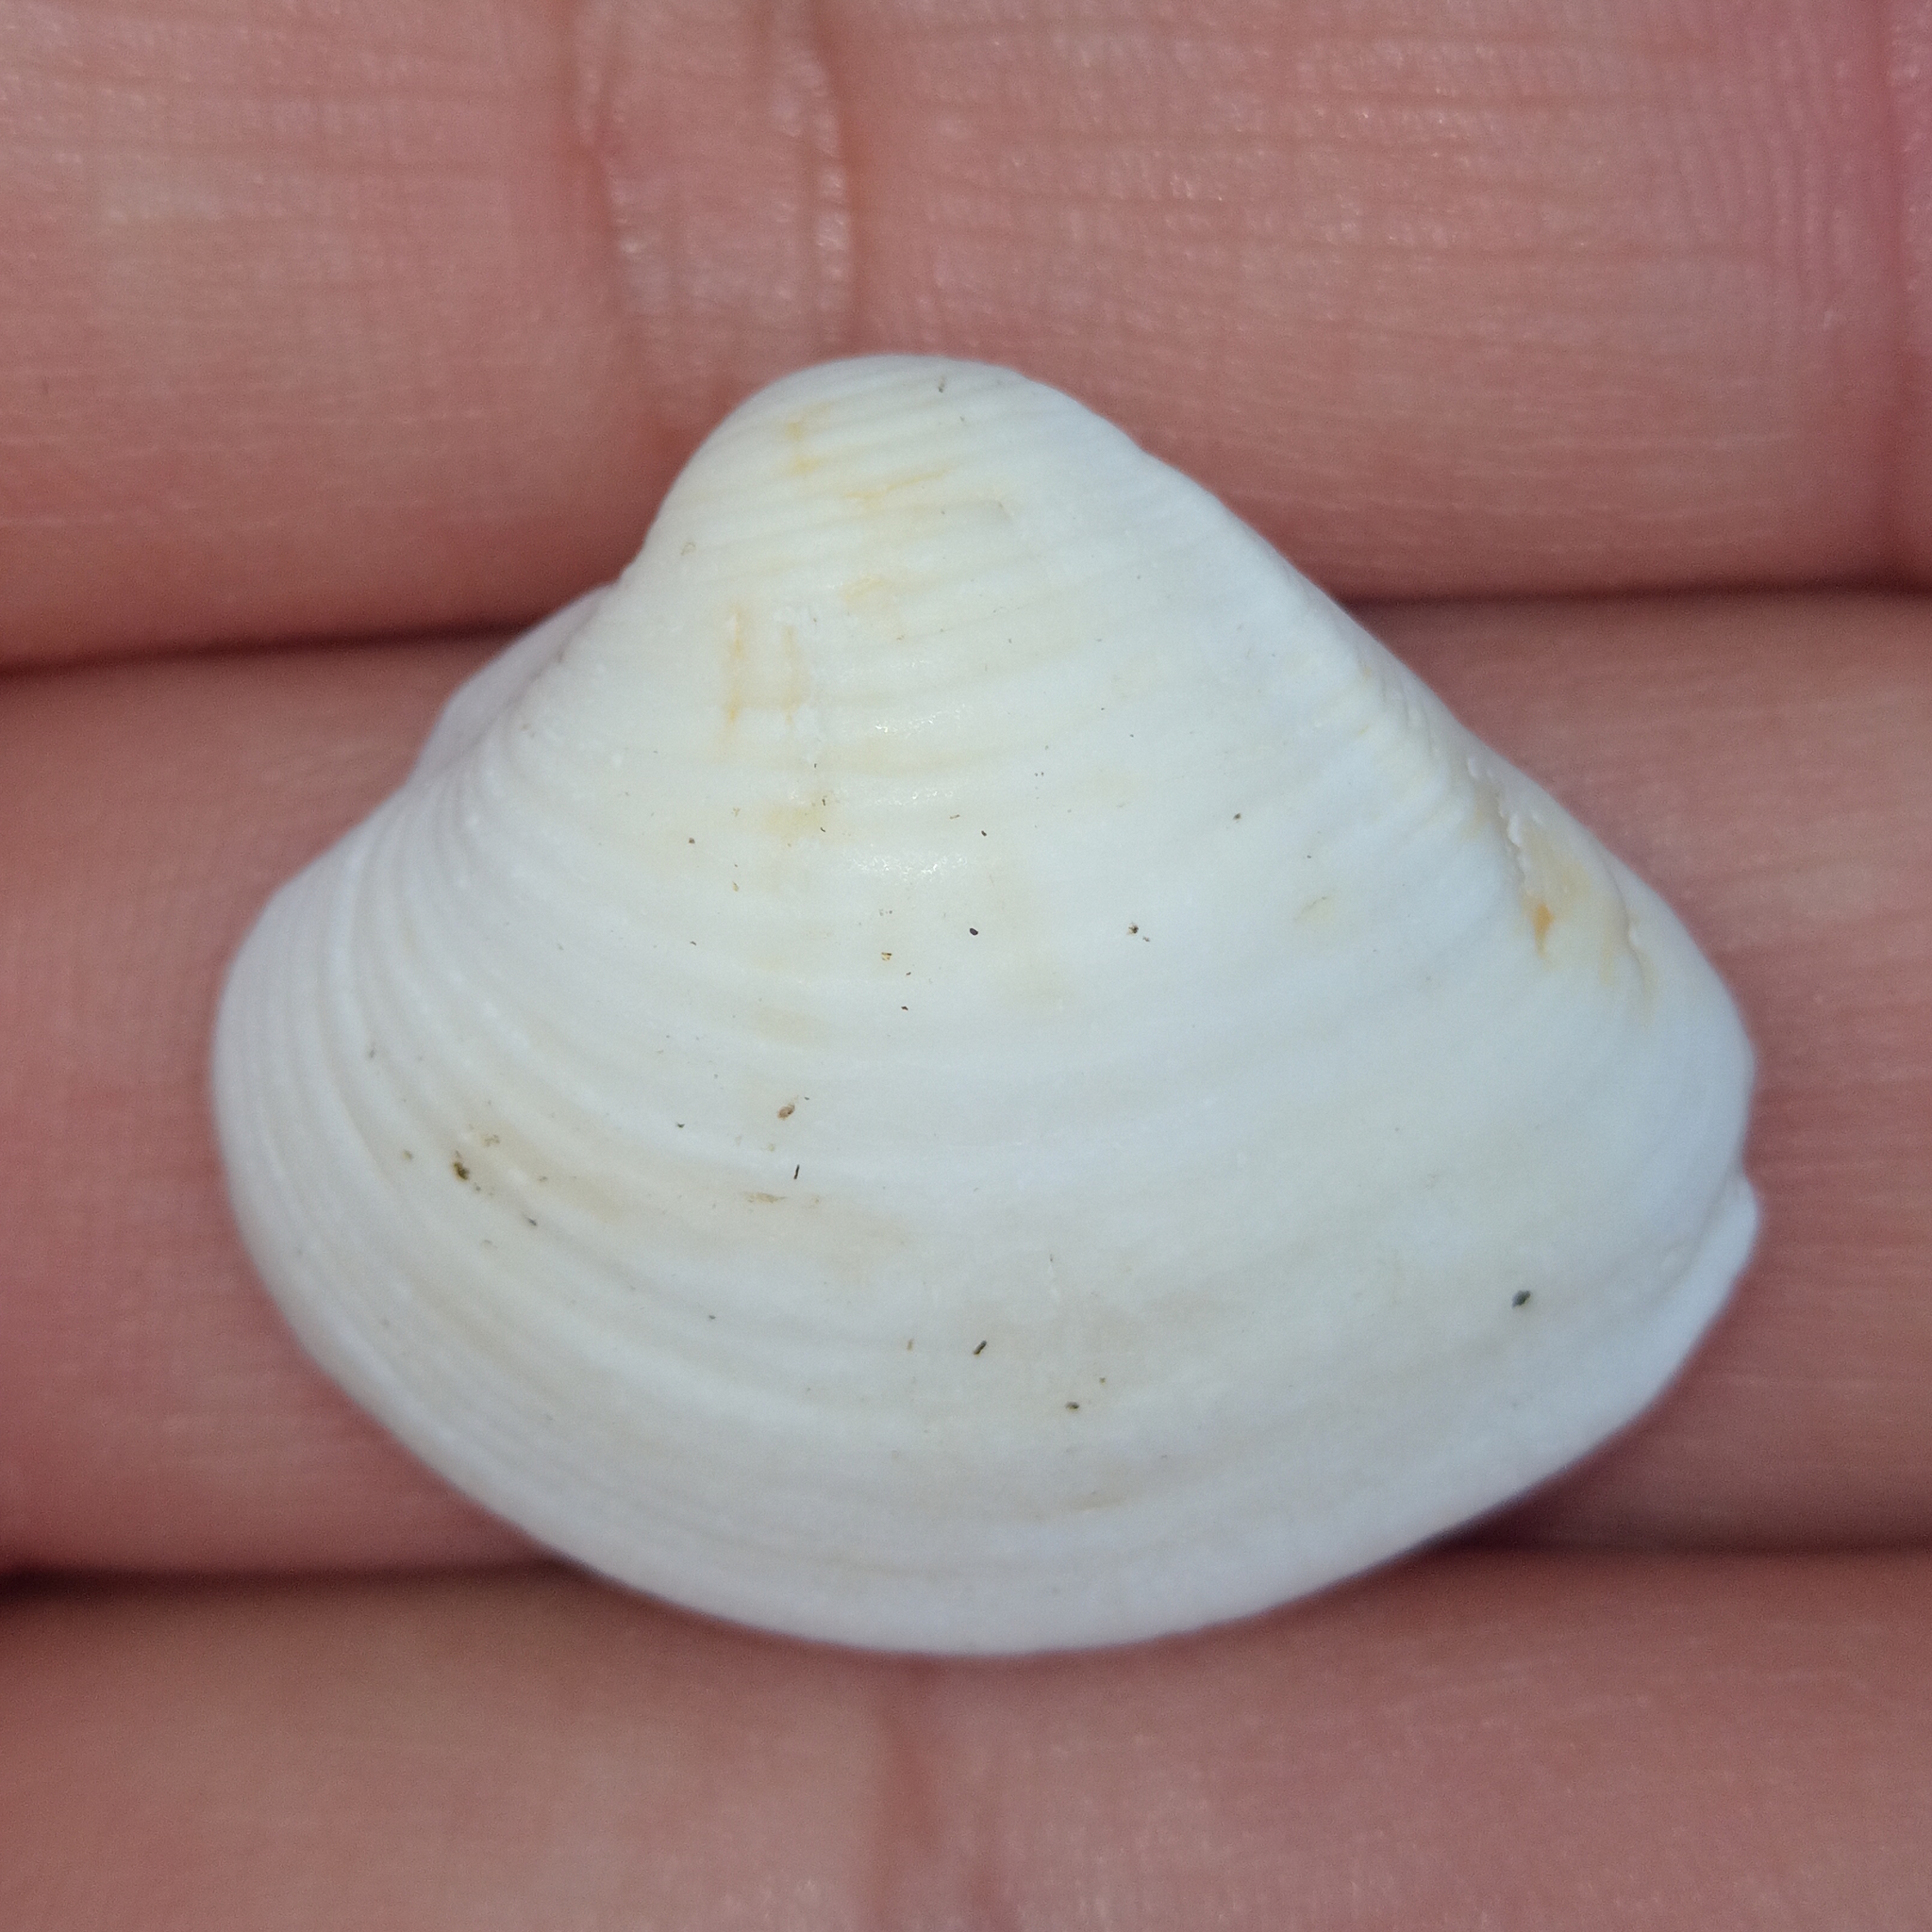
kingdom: Animalia
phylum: Mollusca
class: Bivalvia
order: Venerida
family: Veneridae
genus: Anomalocardia
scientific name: Anomalocardia flexuosa
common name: Carib pointed venus
